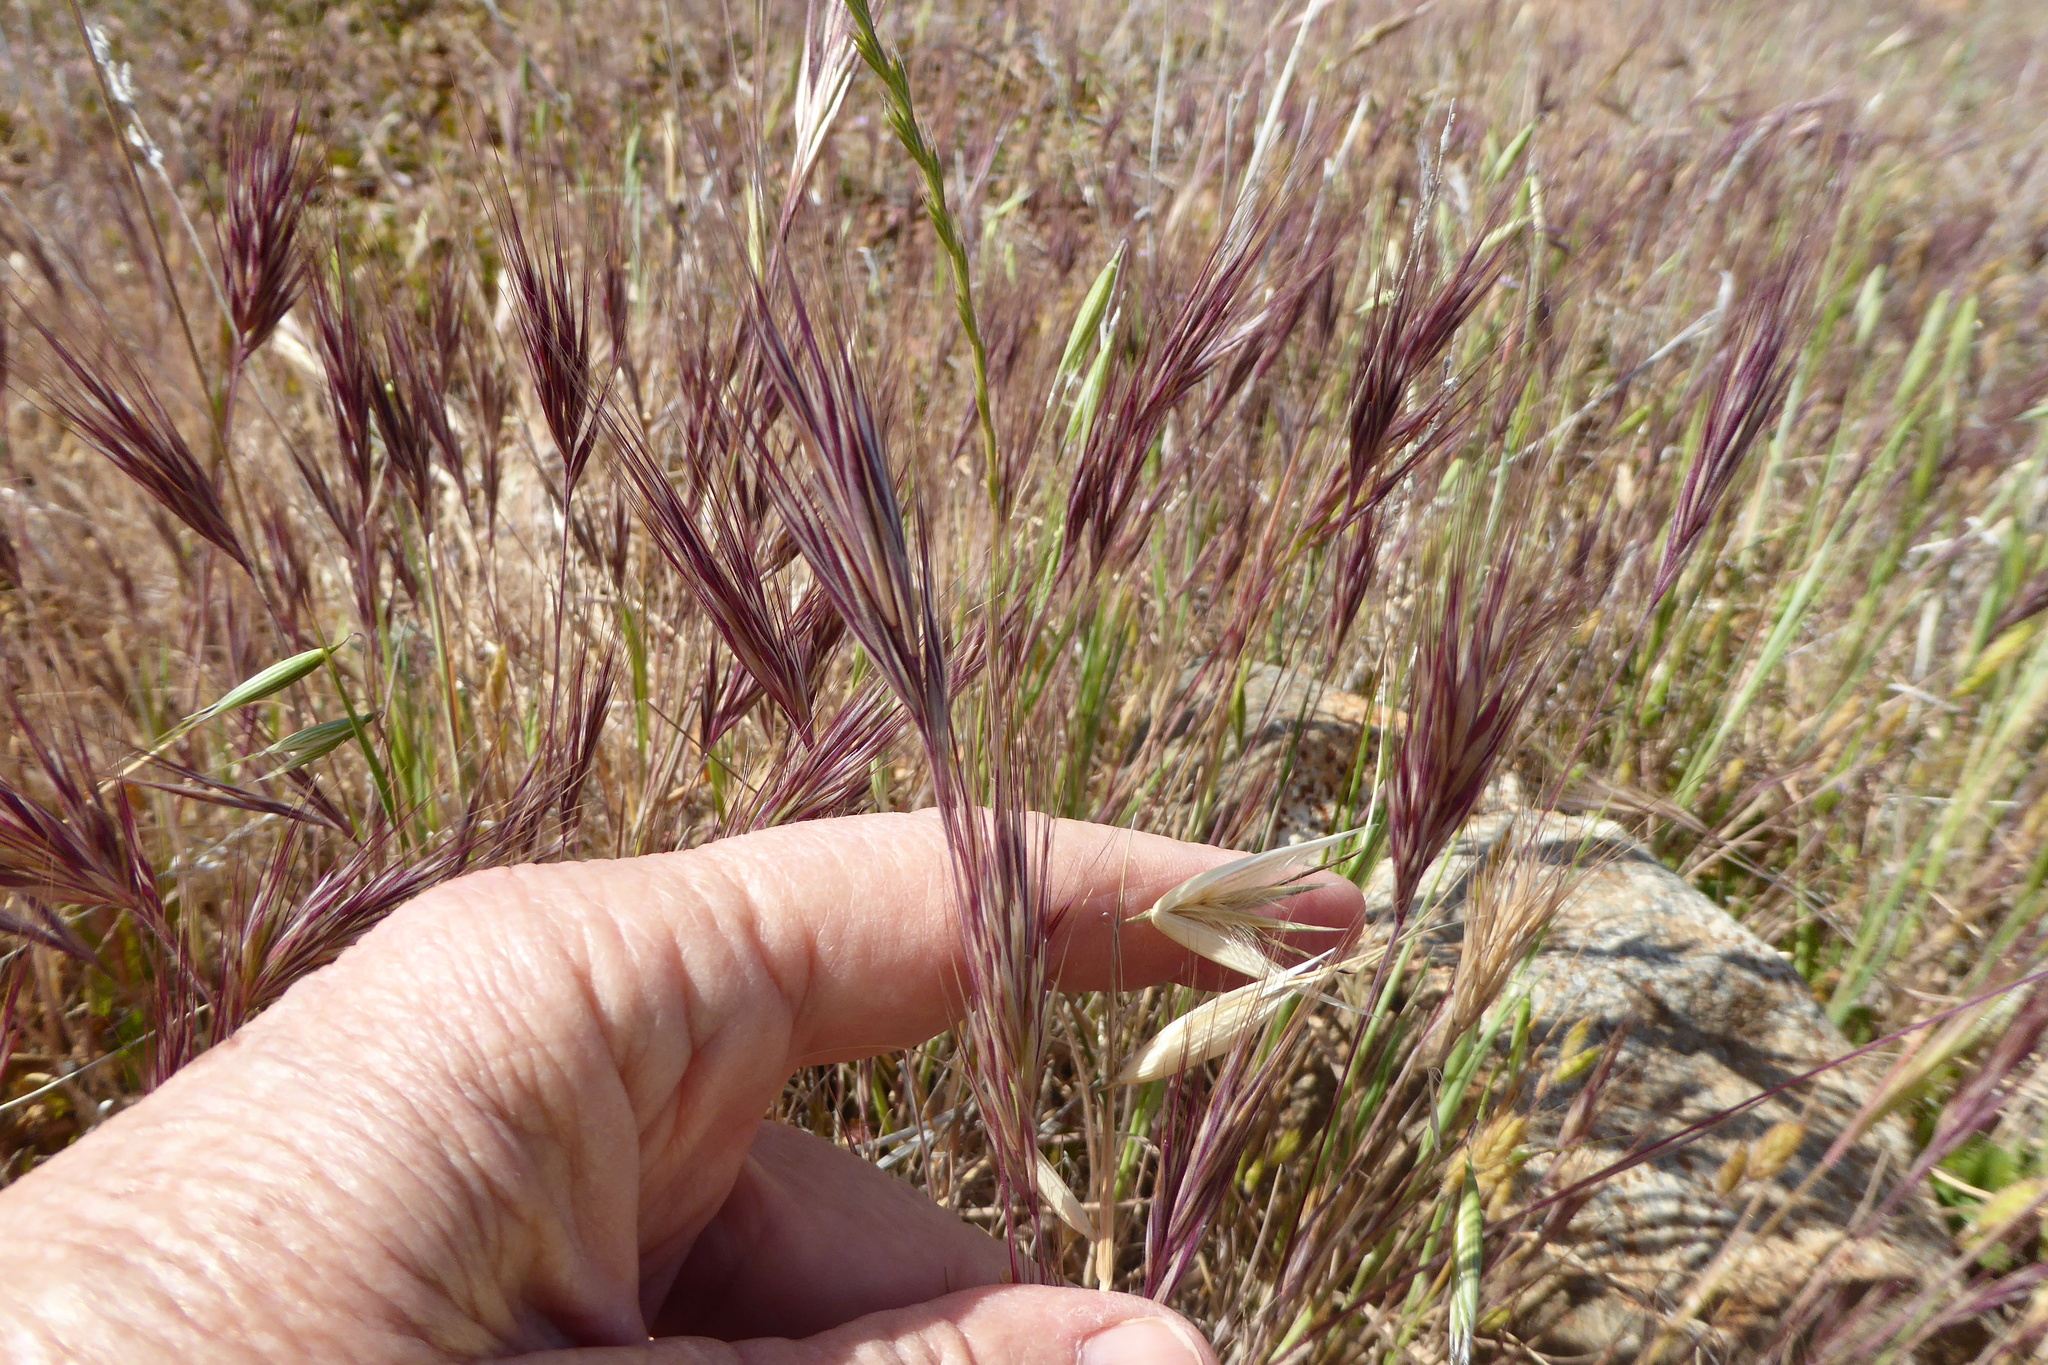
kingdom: Plantae
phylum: Tracheophyta
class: Liliopsida
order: Poales
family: Poaceae
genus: Bromus
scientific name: Bromus rubens
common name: Red brome
